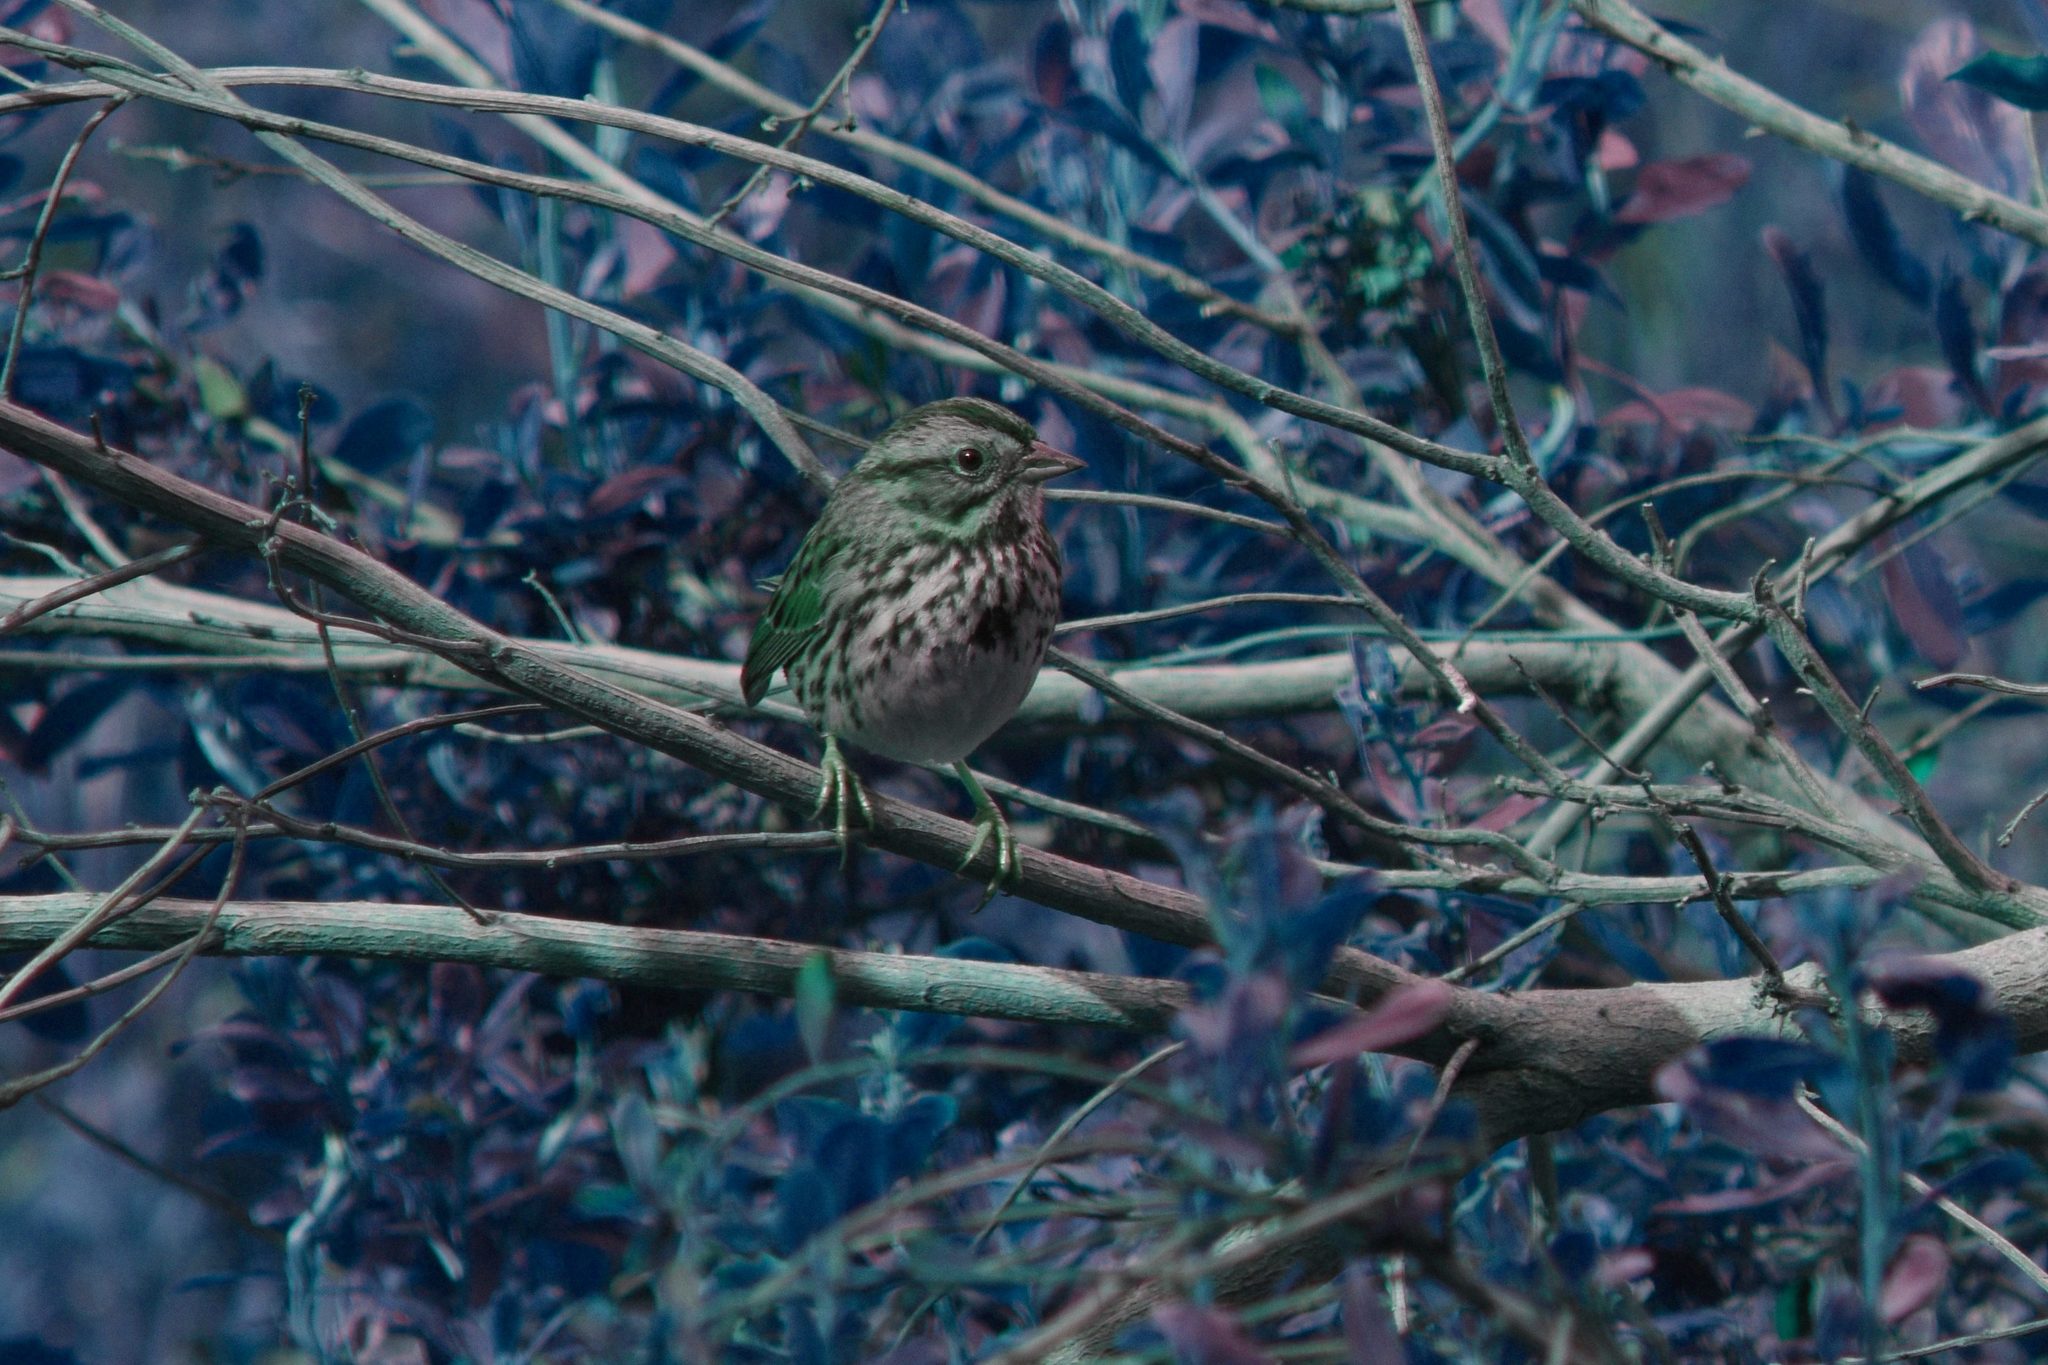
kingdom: Animalia
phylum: Chordata
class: Aves
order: Passeriformes
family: Passerellidae
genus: Melospiza
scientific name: Melospiza melodia
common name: Song sparrow
